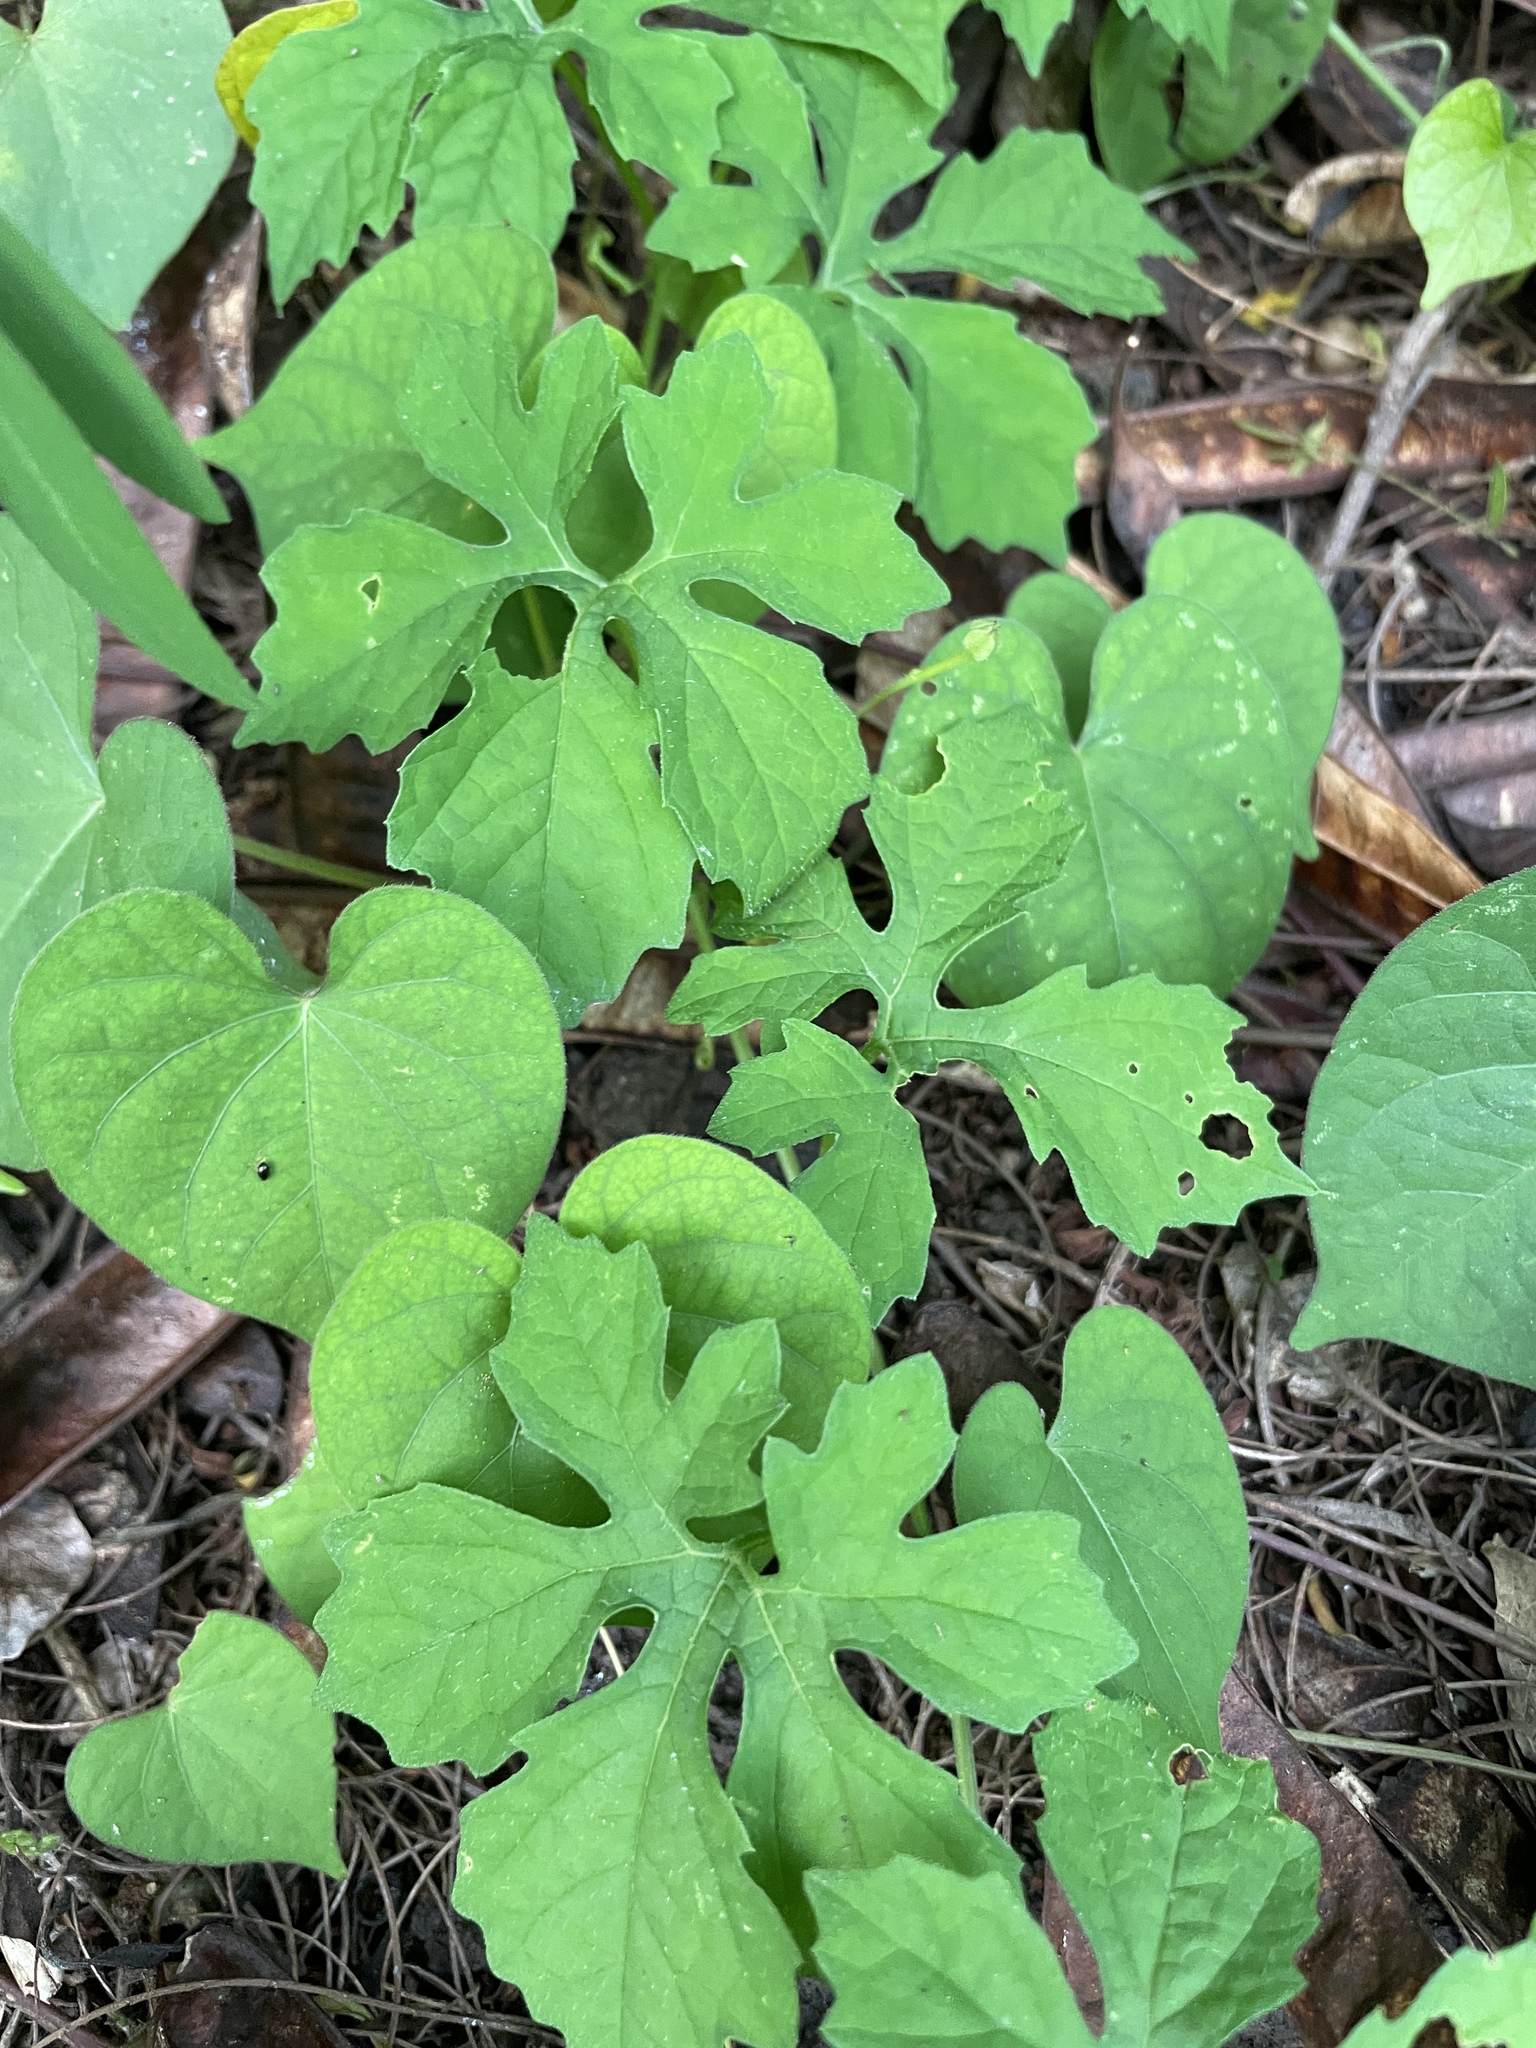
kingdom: Plantae
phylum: Tracheophyta
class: Magnoliopsida
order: Cucurbitales
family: Cucurbitaceae
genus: Momordica
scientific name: Momordica charantia
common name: Balsampear
